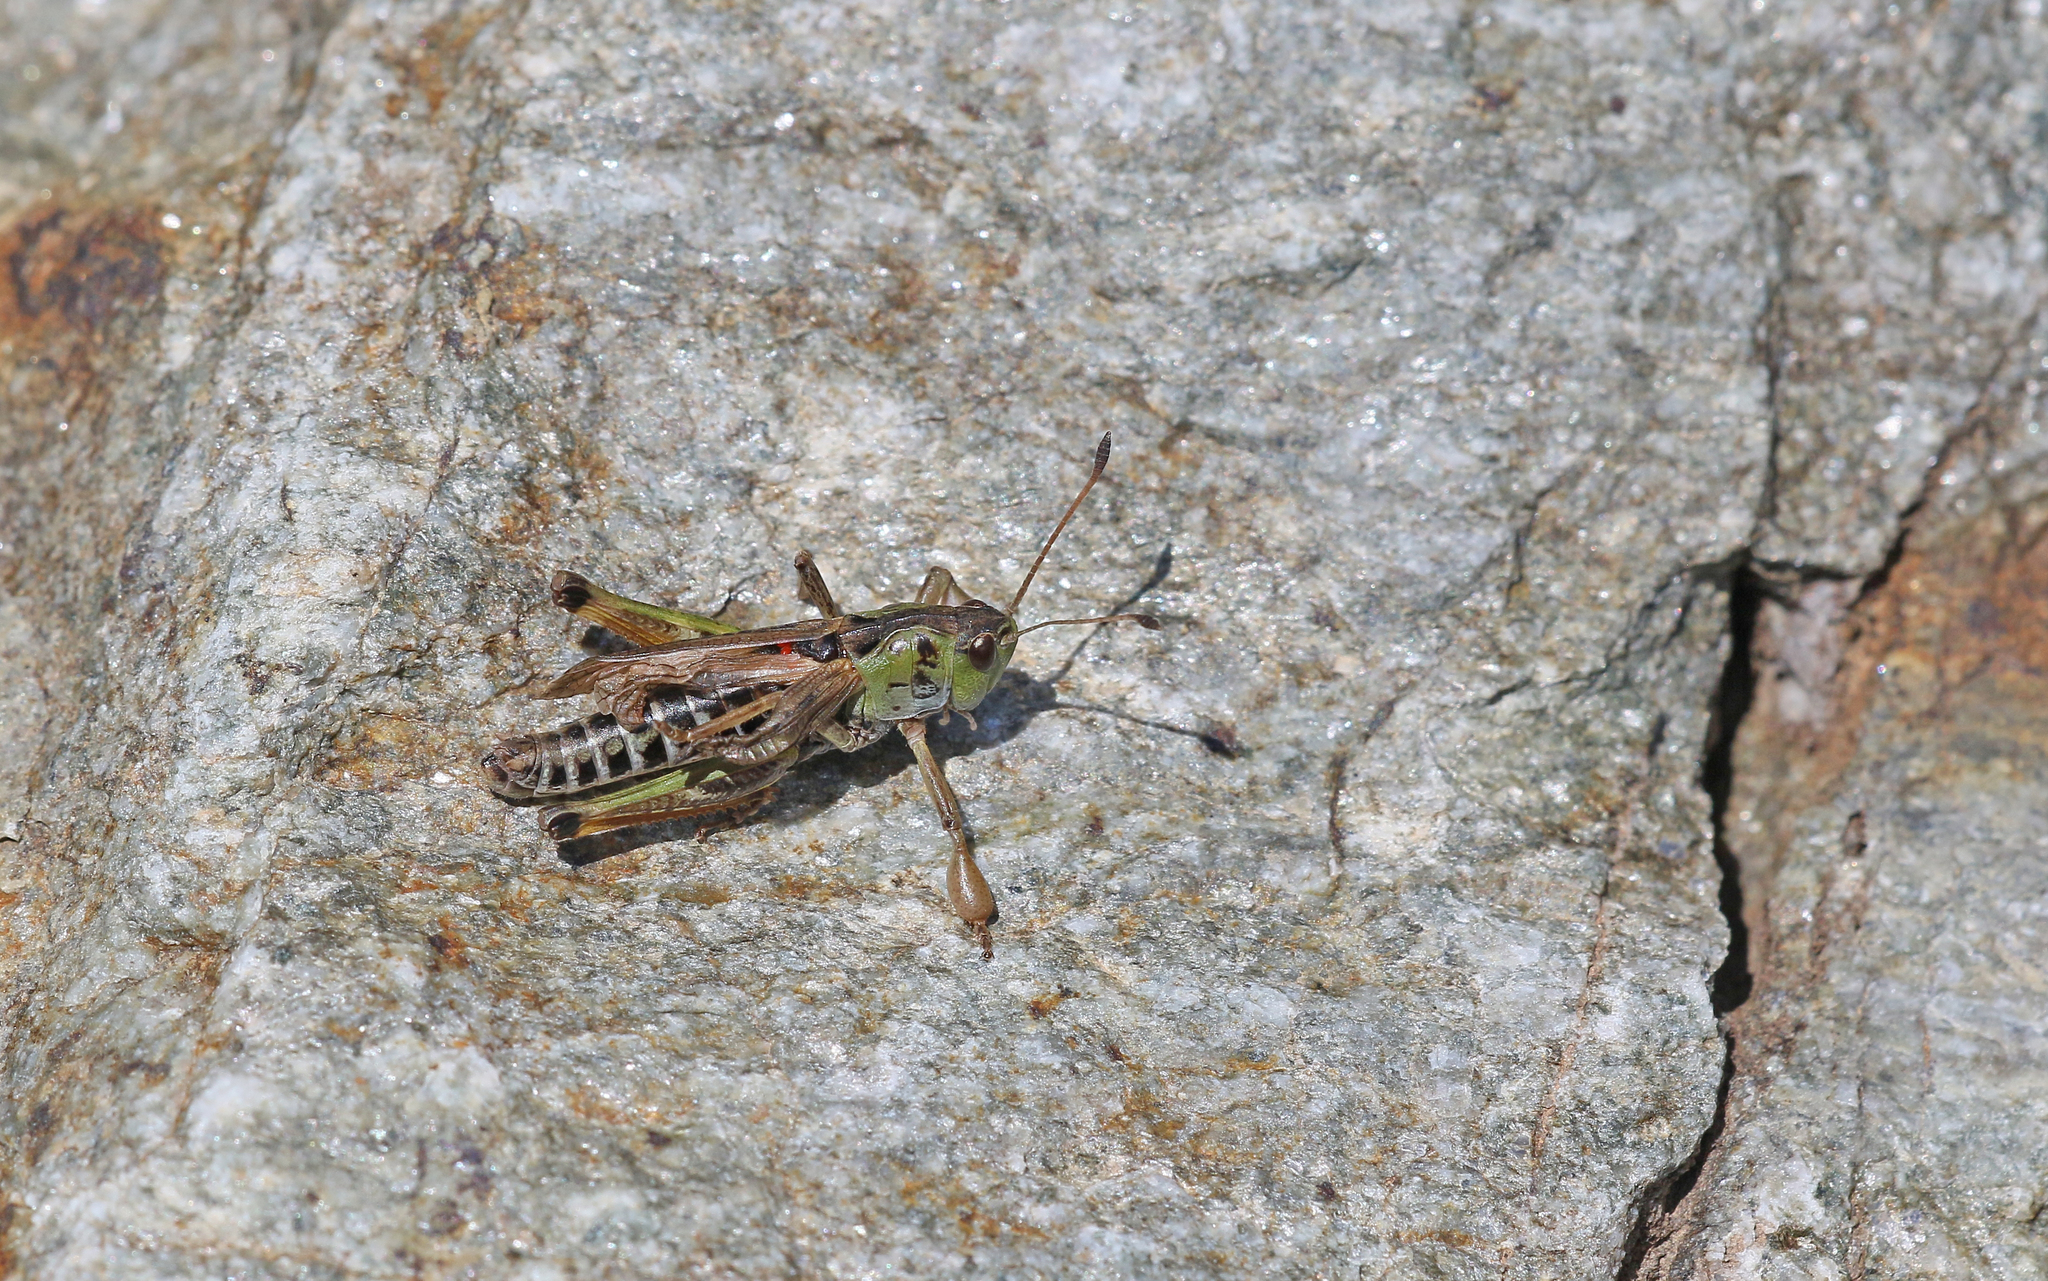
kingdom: Animalia
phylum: Arthropoda
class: Insecta
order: Orthoptera
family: Acrididae
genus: Gomphocerus
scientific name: Gomphocerus sibiricus
